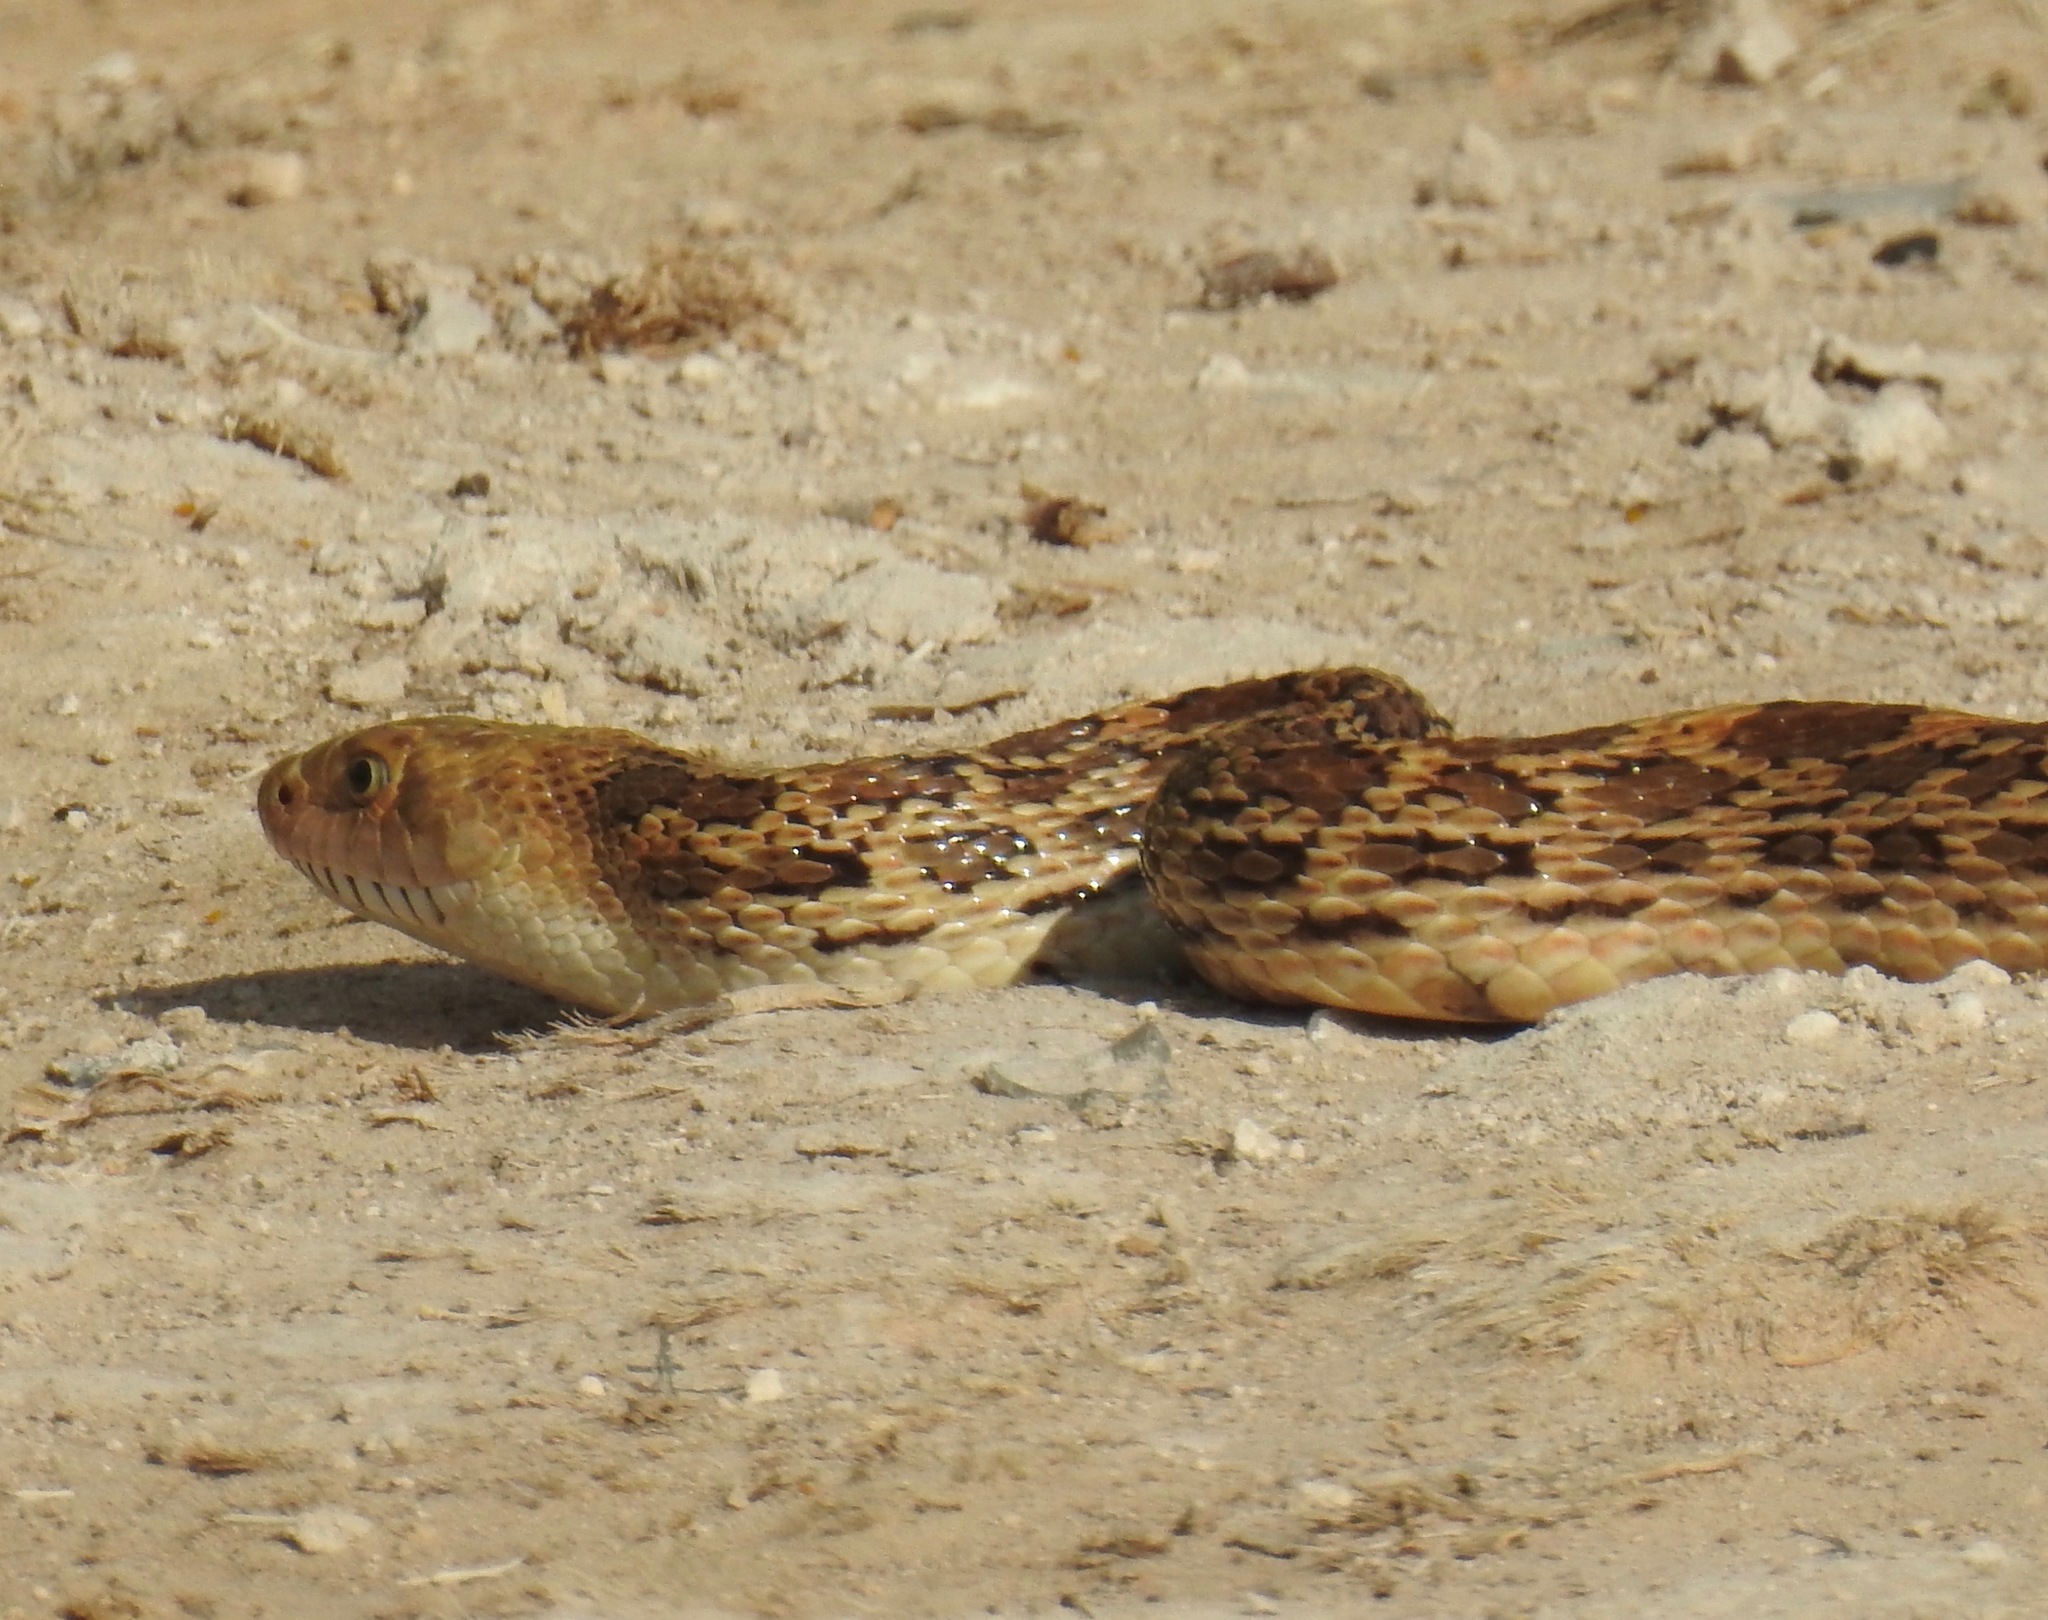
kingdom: Animalia
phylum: Chordata
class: Squamata
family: Colubridae
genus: Pituophis
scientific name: Pituophis catenifer
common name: Gopher snake
